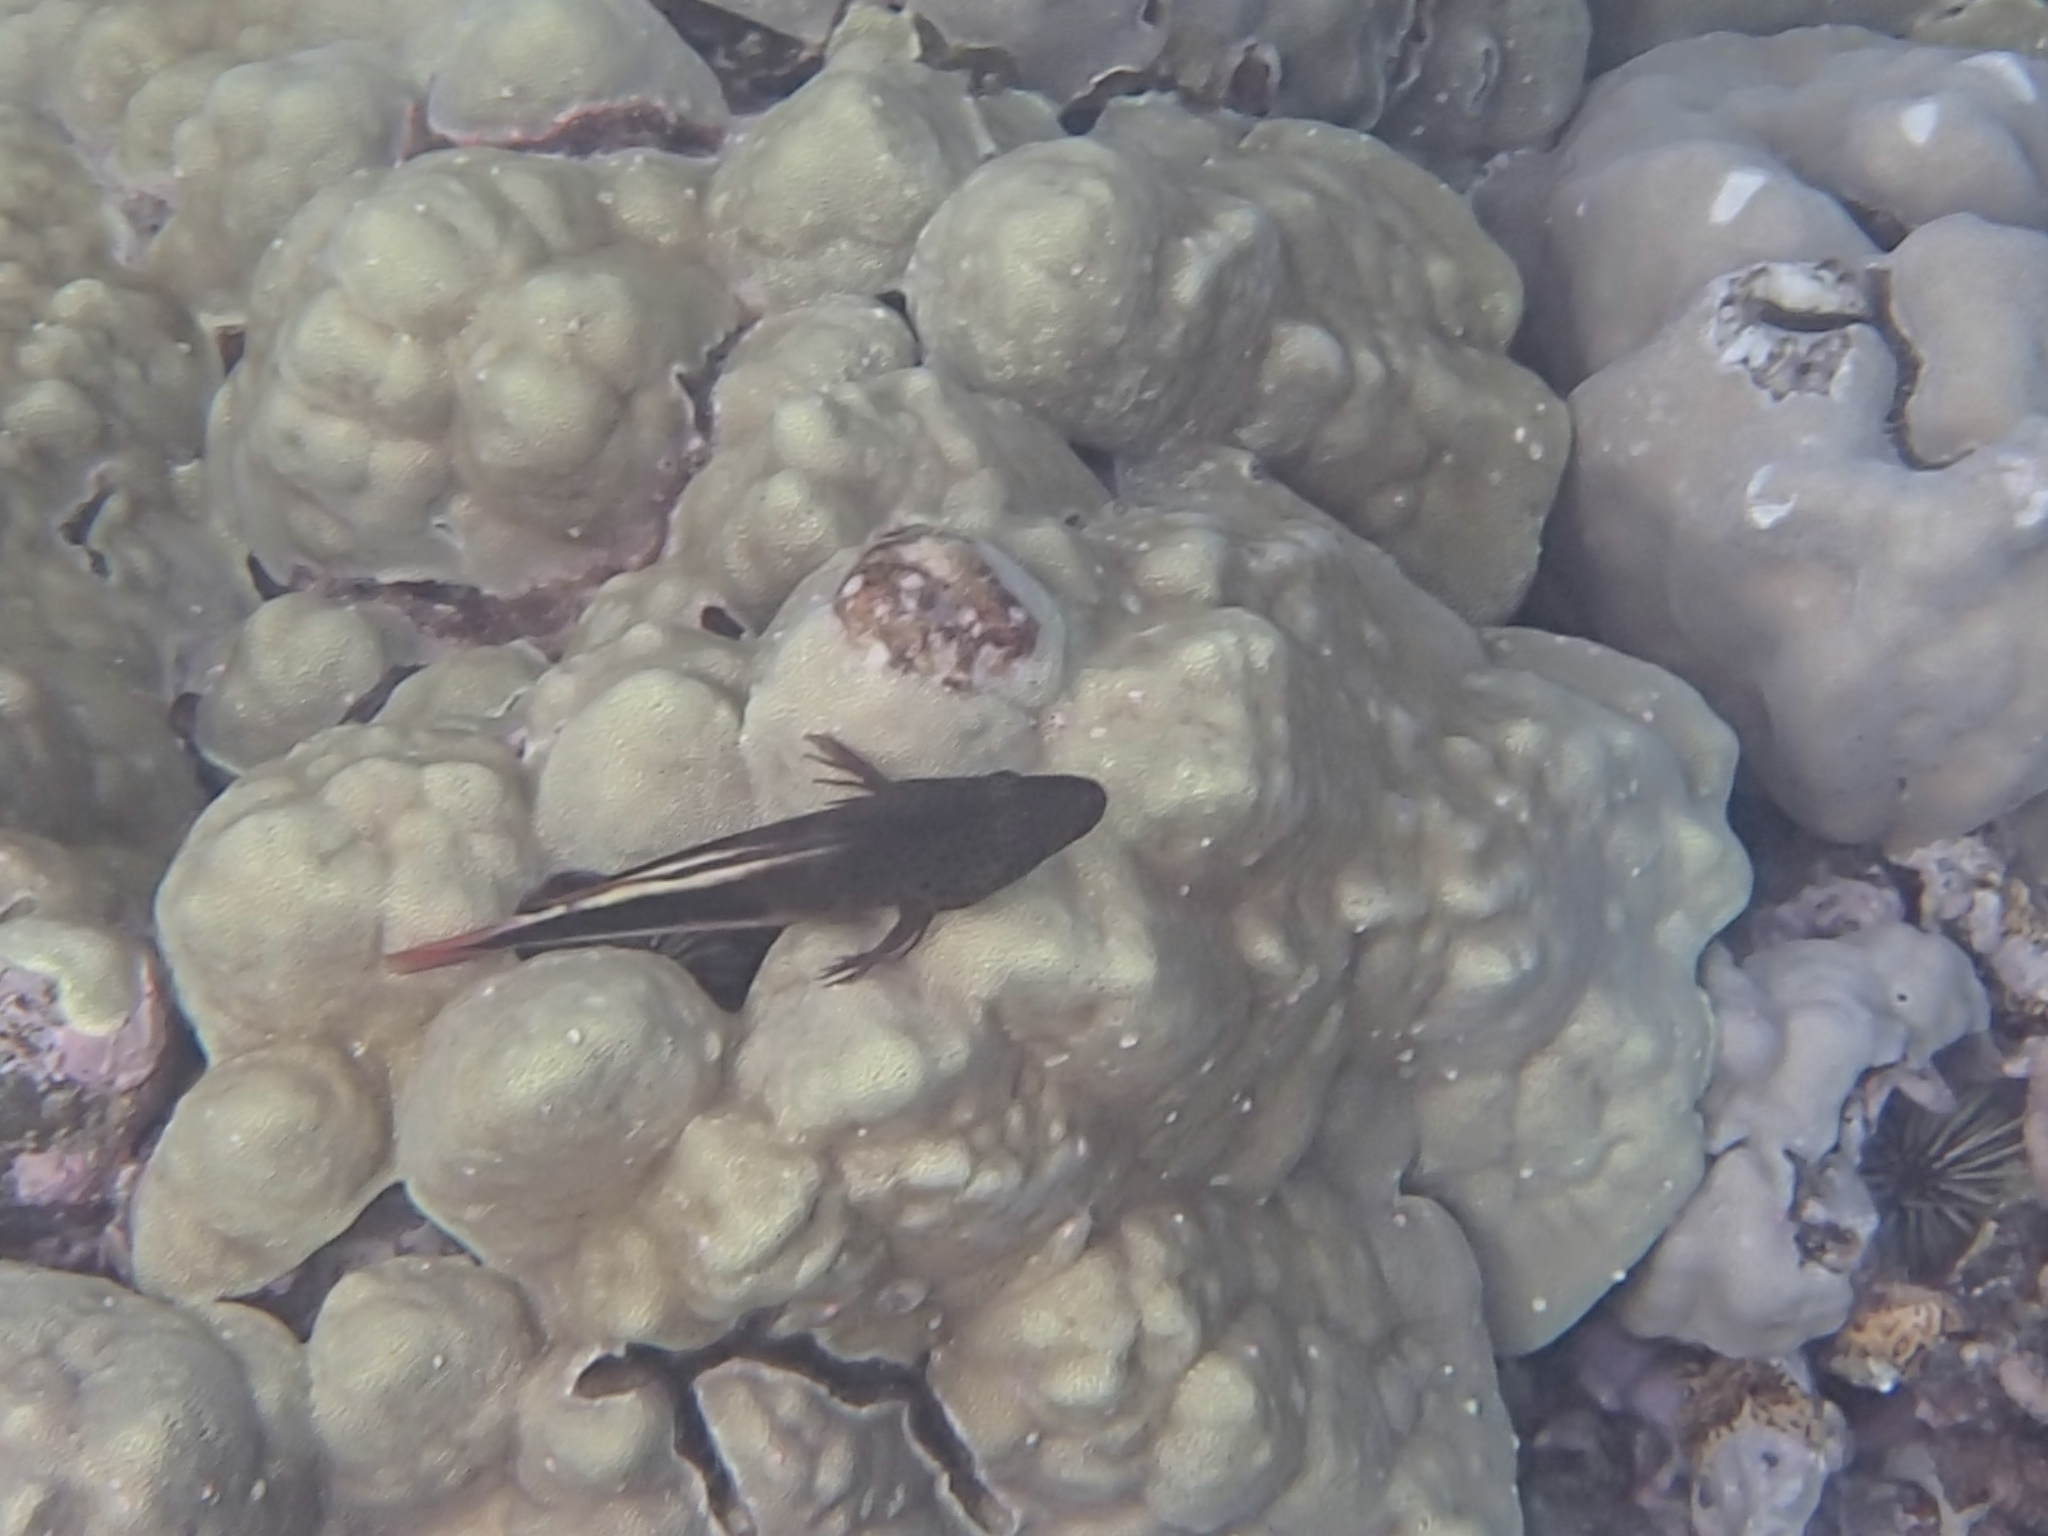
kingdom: Animalia
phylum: Chordata
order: Perciformes
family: Cirrhitidae
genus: Paracirrhites
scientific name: Paracirrhites forsteri
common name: Freckled hawkfish
